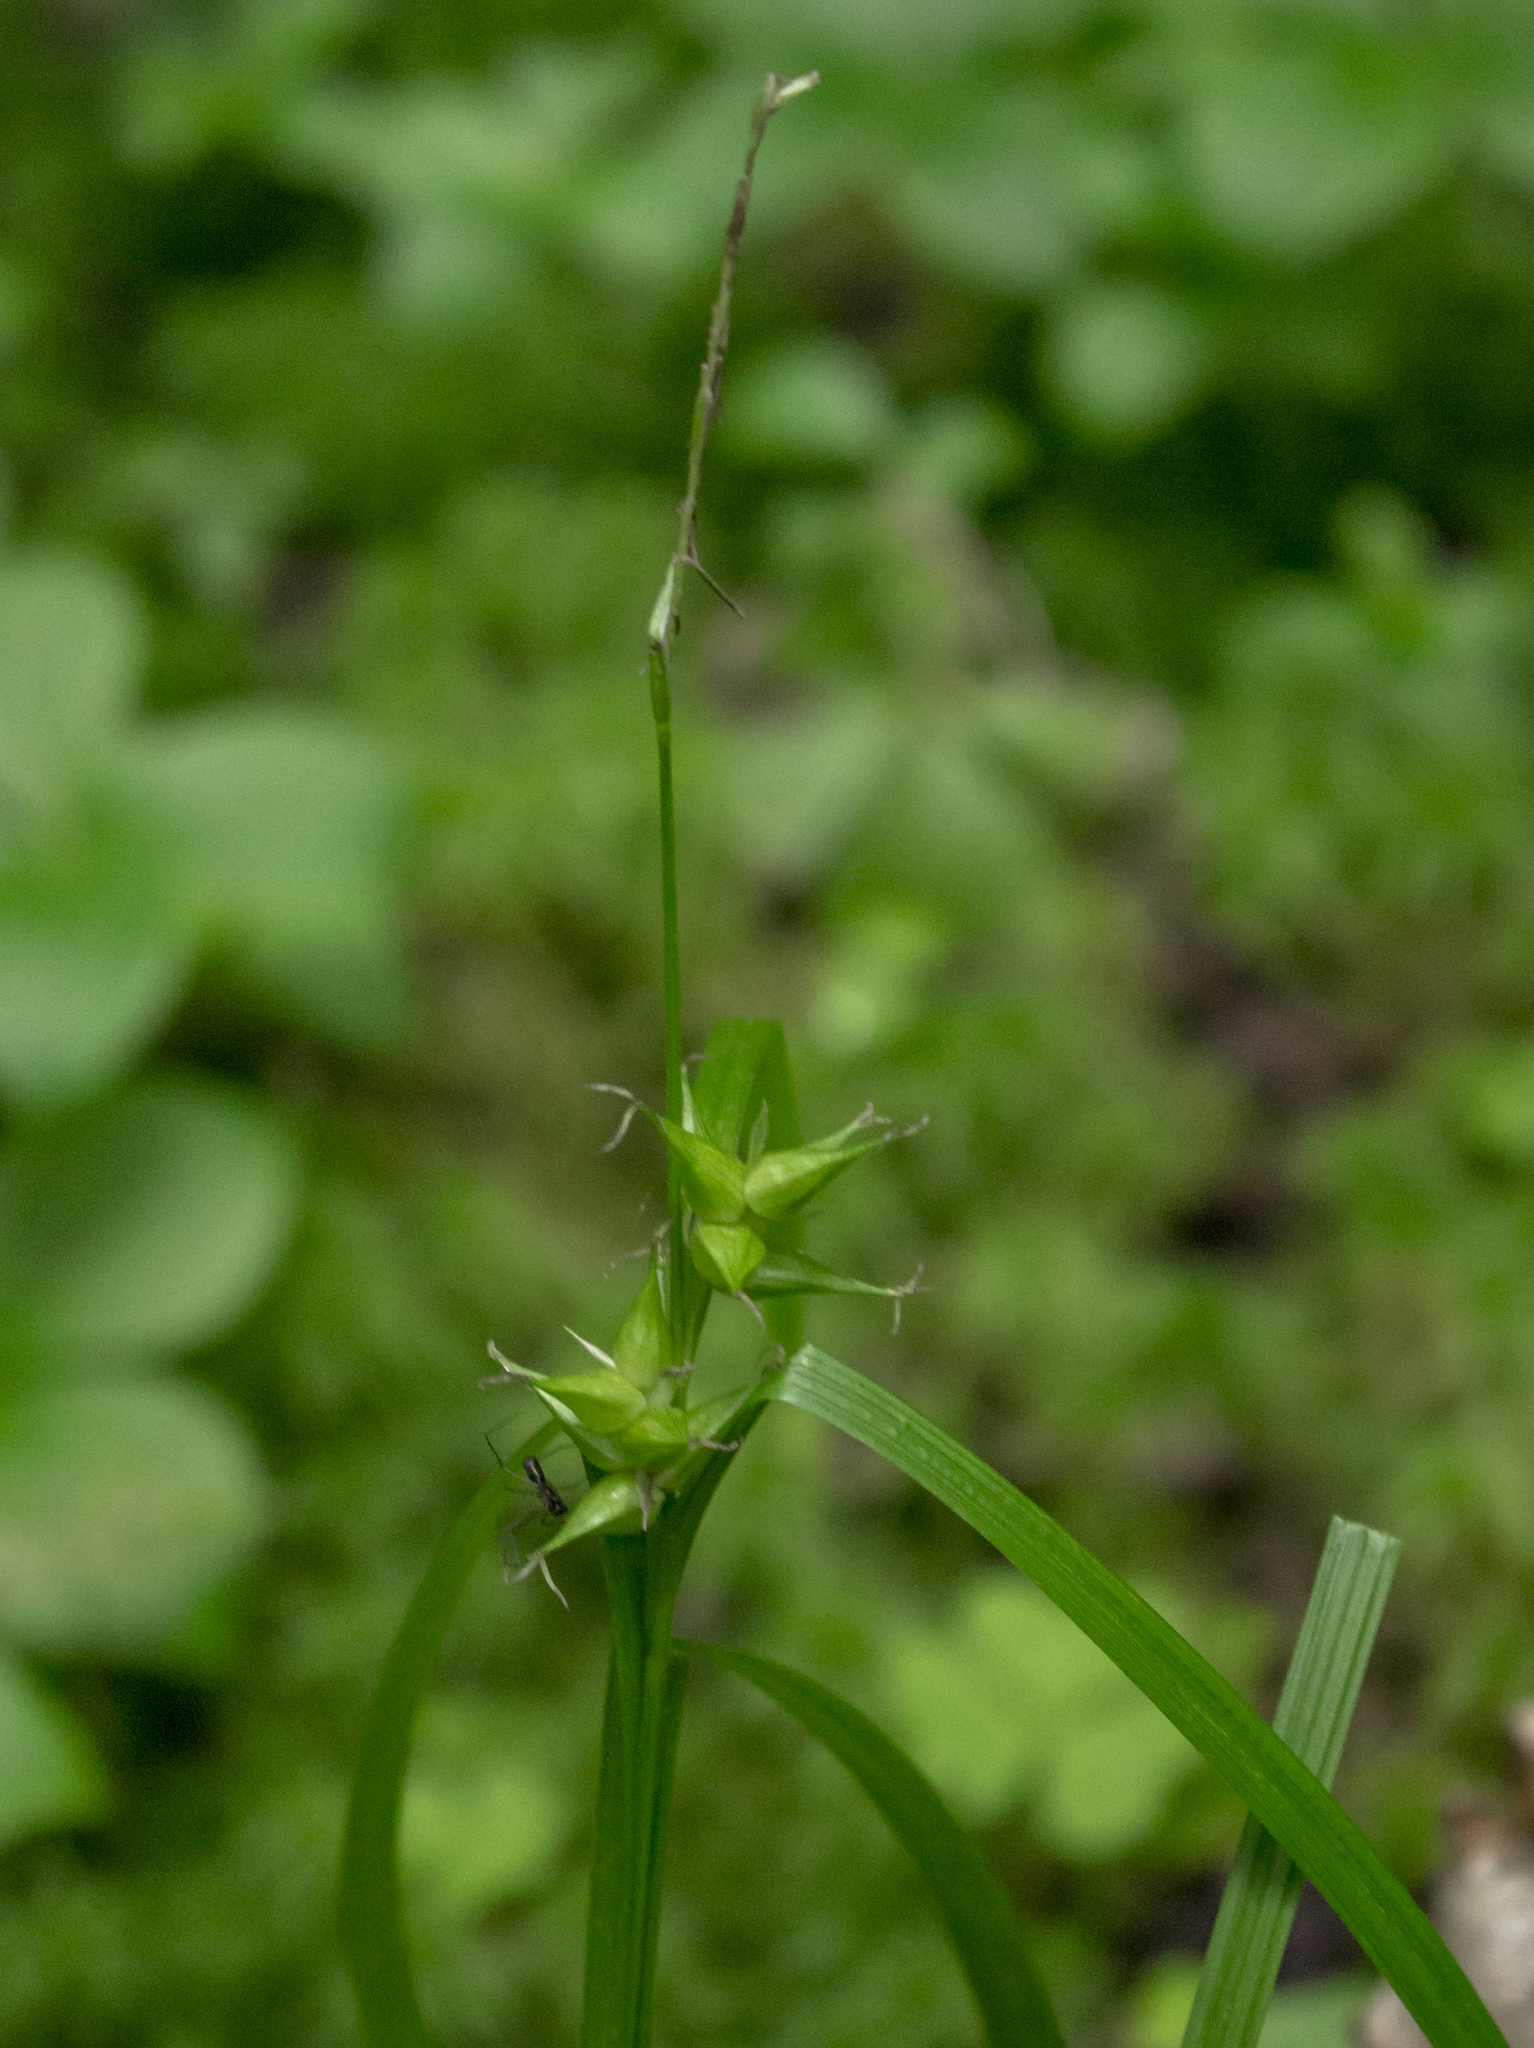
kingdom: Plantae
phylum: Tracheophyta
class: Liliopsida
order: Poales
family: Cyperaceae
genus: Carex
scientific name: Carex intumescens
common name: Greater bladder sedge
